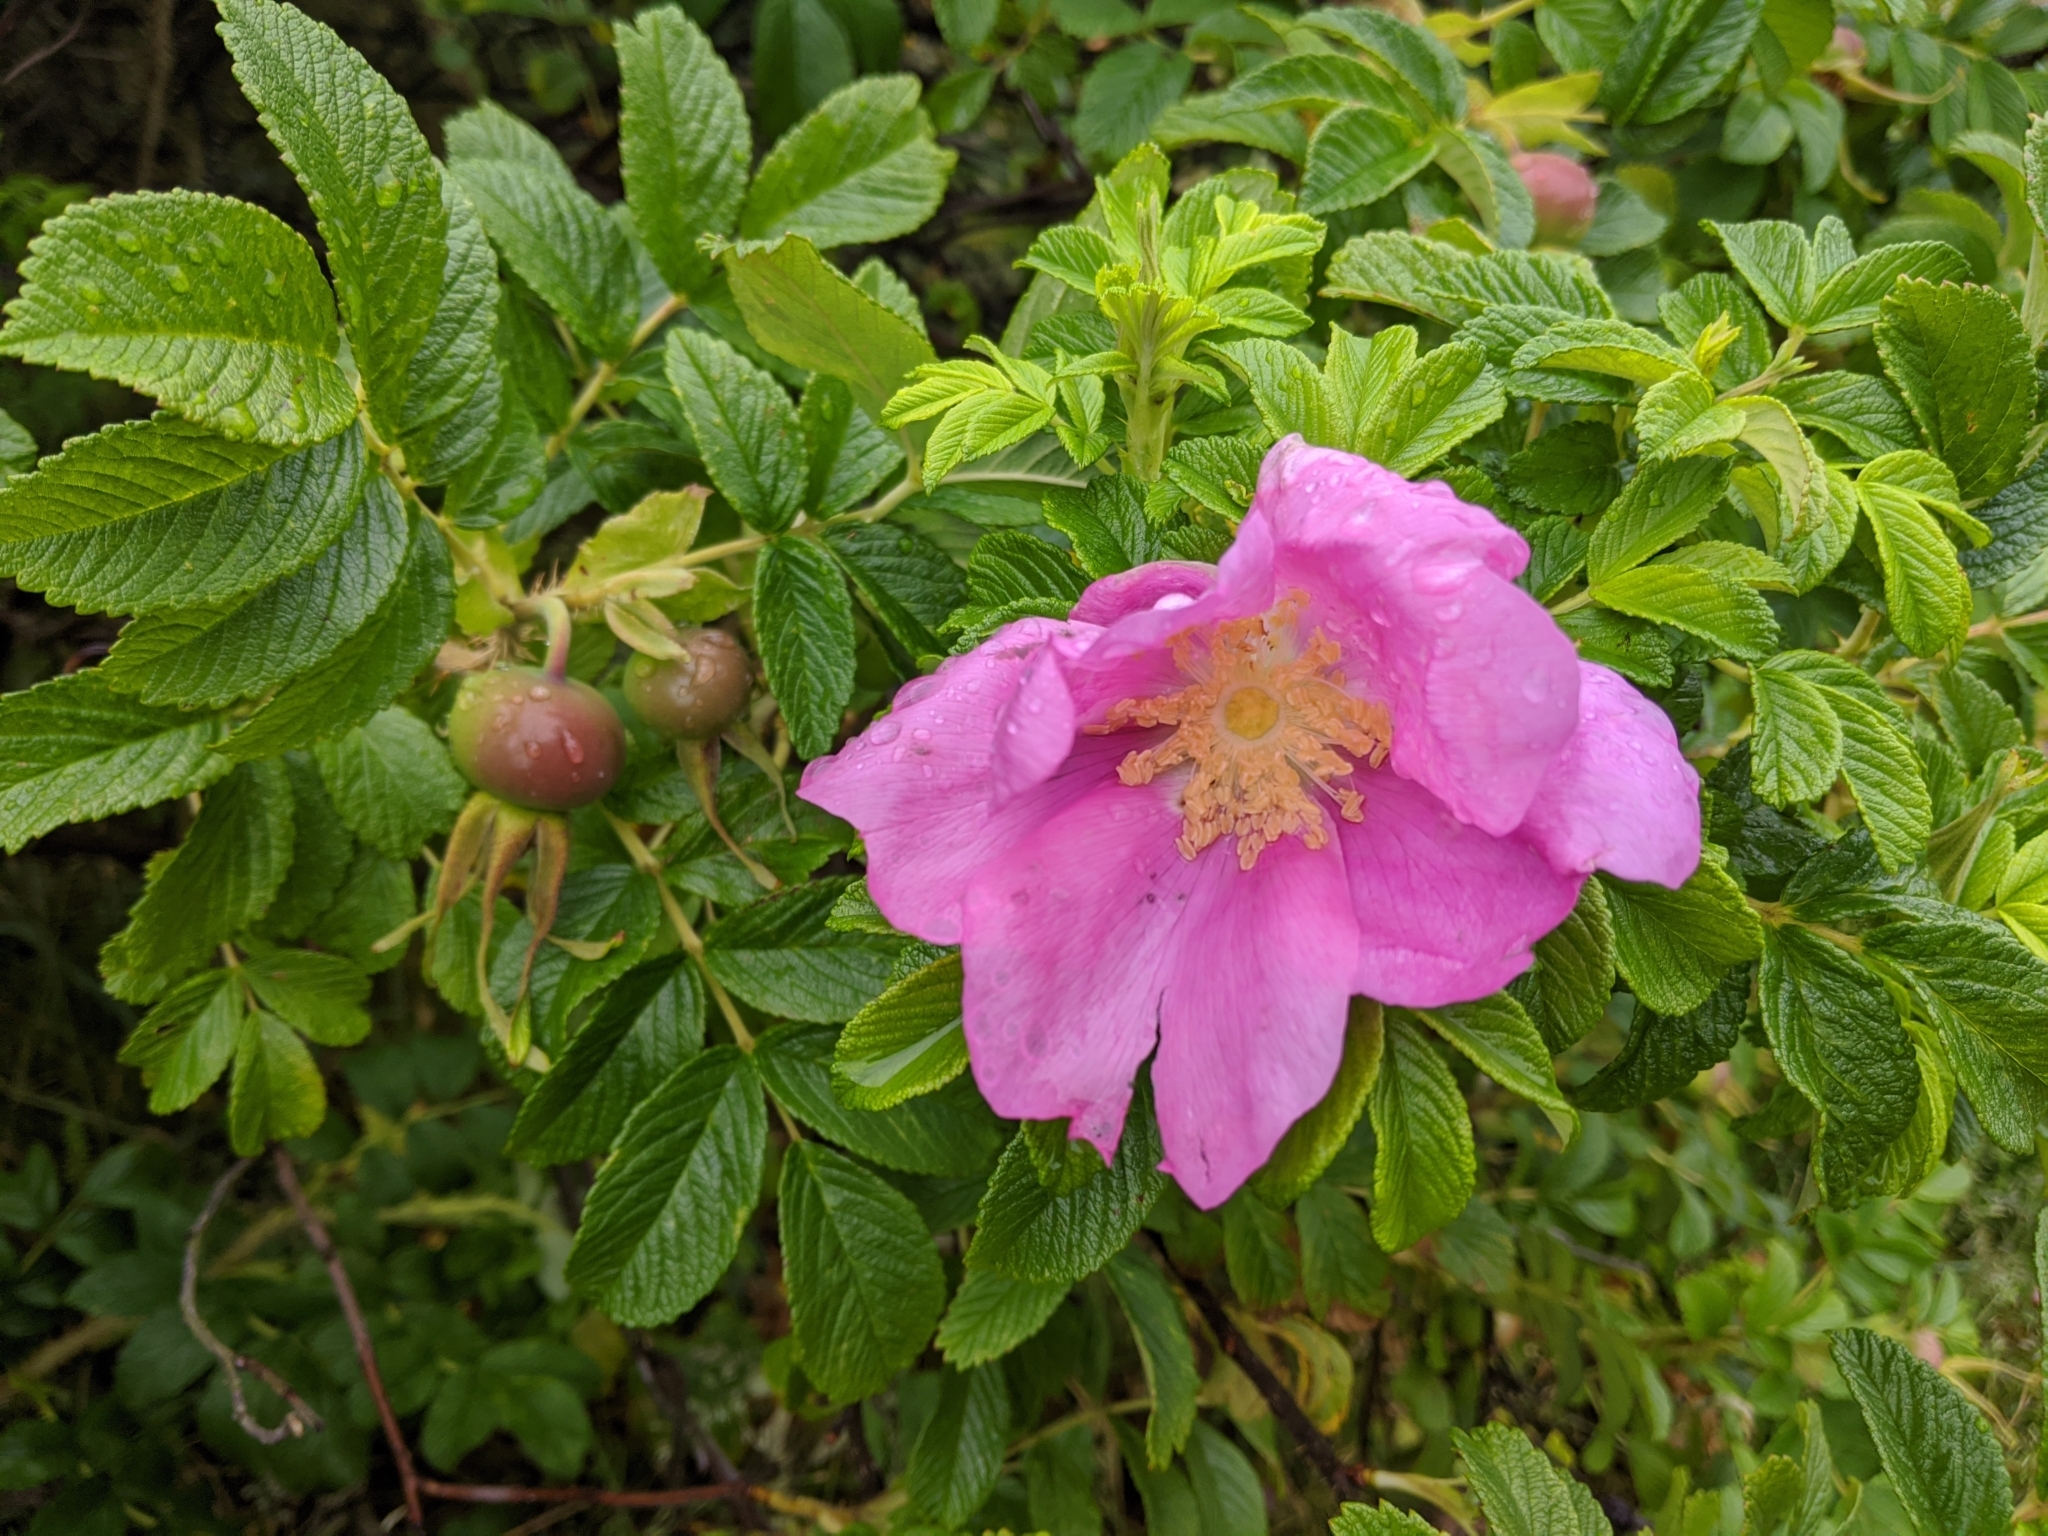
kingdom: Plantae
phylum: Tracheophyta
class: Magnoliopsida
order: Rosales
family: Rosaceae
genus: Rosa
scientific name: Rosa rugosa
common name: Japanese rose
